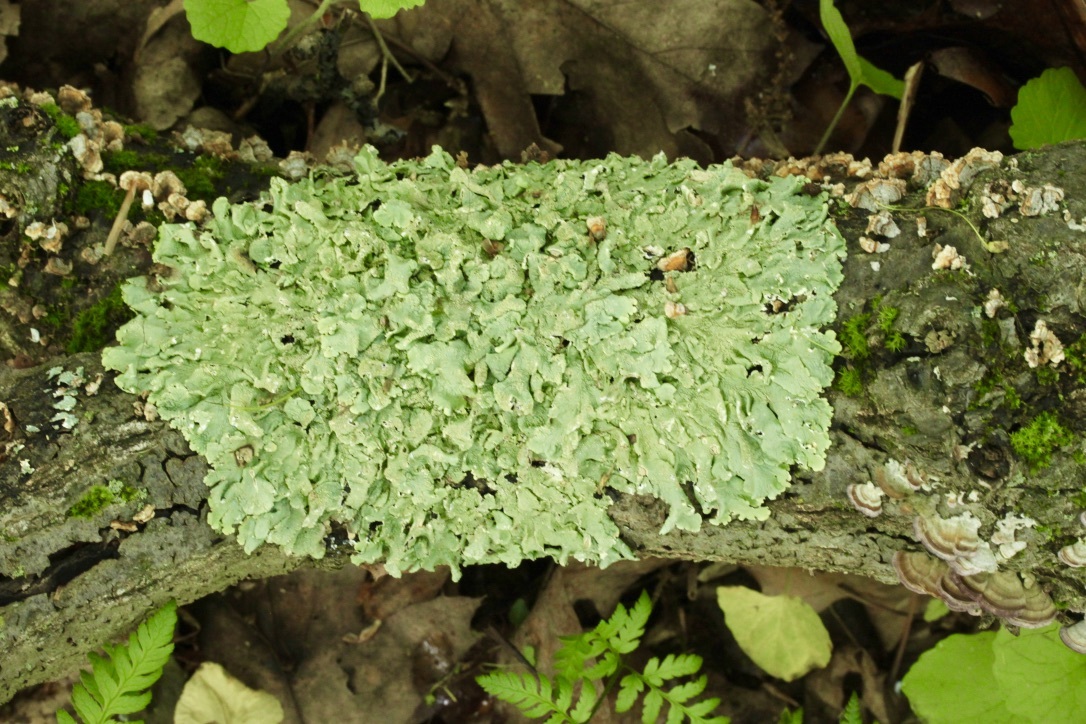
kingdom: Fungi
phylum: Ascomycota
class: Lecanoromycetes
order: Lecanorales
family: Parmeliaceae
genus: Flavoparmelia
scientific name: Flavoparmelia caperata
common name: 40-mile per hour lichen
